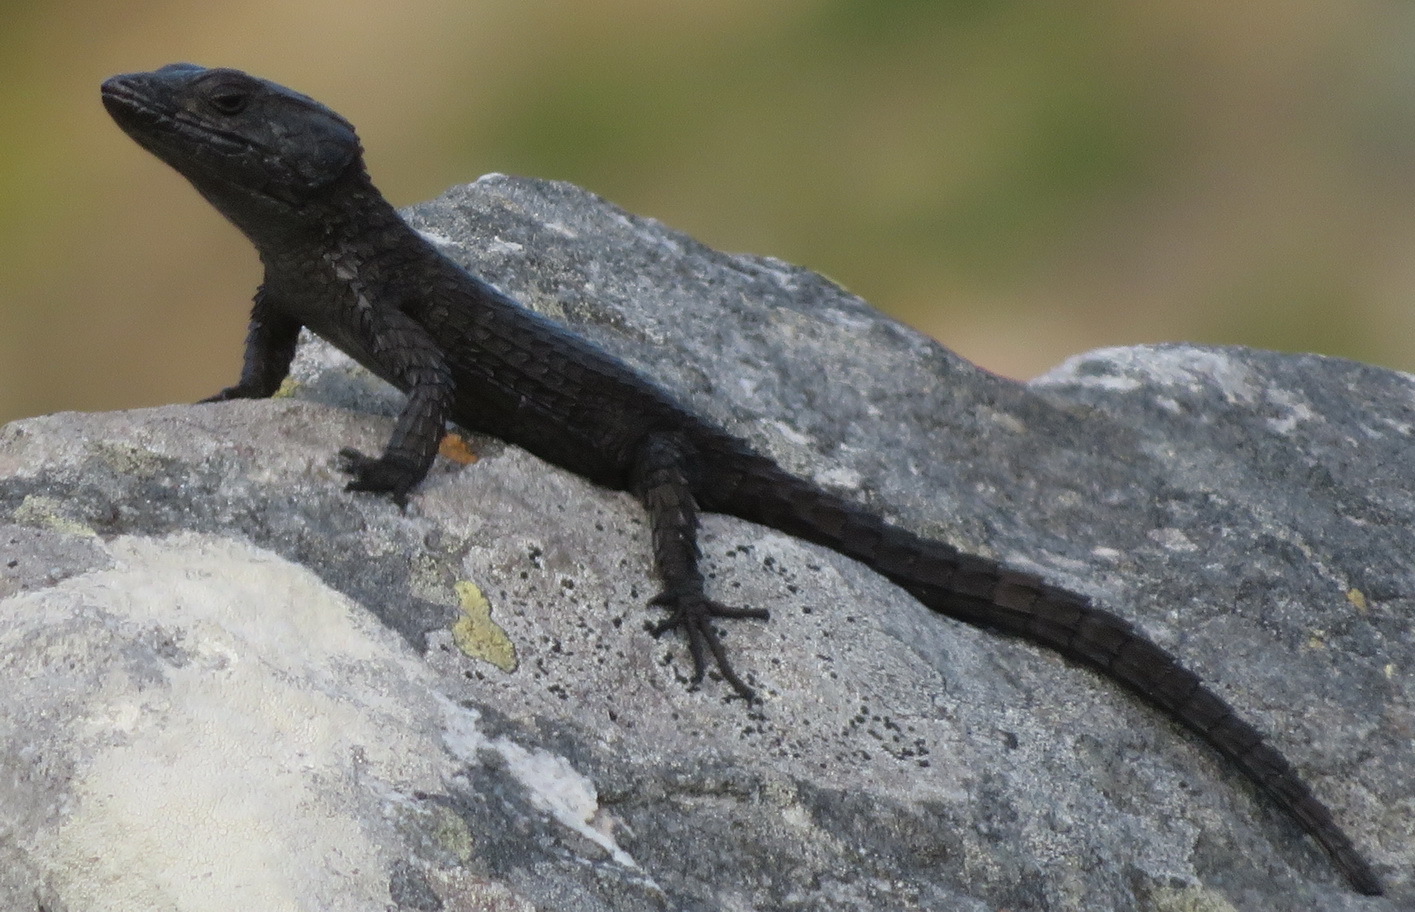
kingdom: Animalia
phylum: Chordata
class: Squamata
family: Cordylidae
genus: Cordylus
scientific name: Cordylus niger
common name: Black girdled lizard
